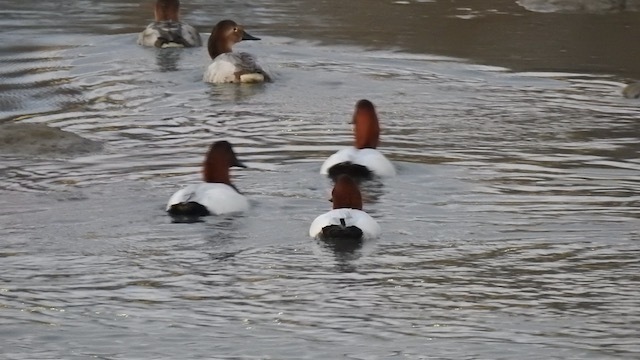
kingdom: Animalia
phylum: Chordata
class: Aves
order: Anseriformes
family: Anatidae
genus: Aythya
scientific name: Aythya valisineria
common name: Canvasback
